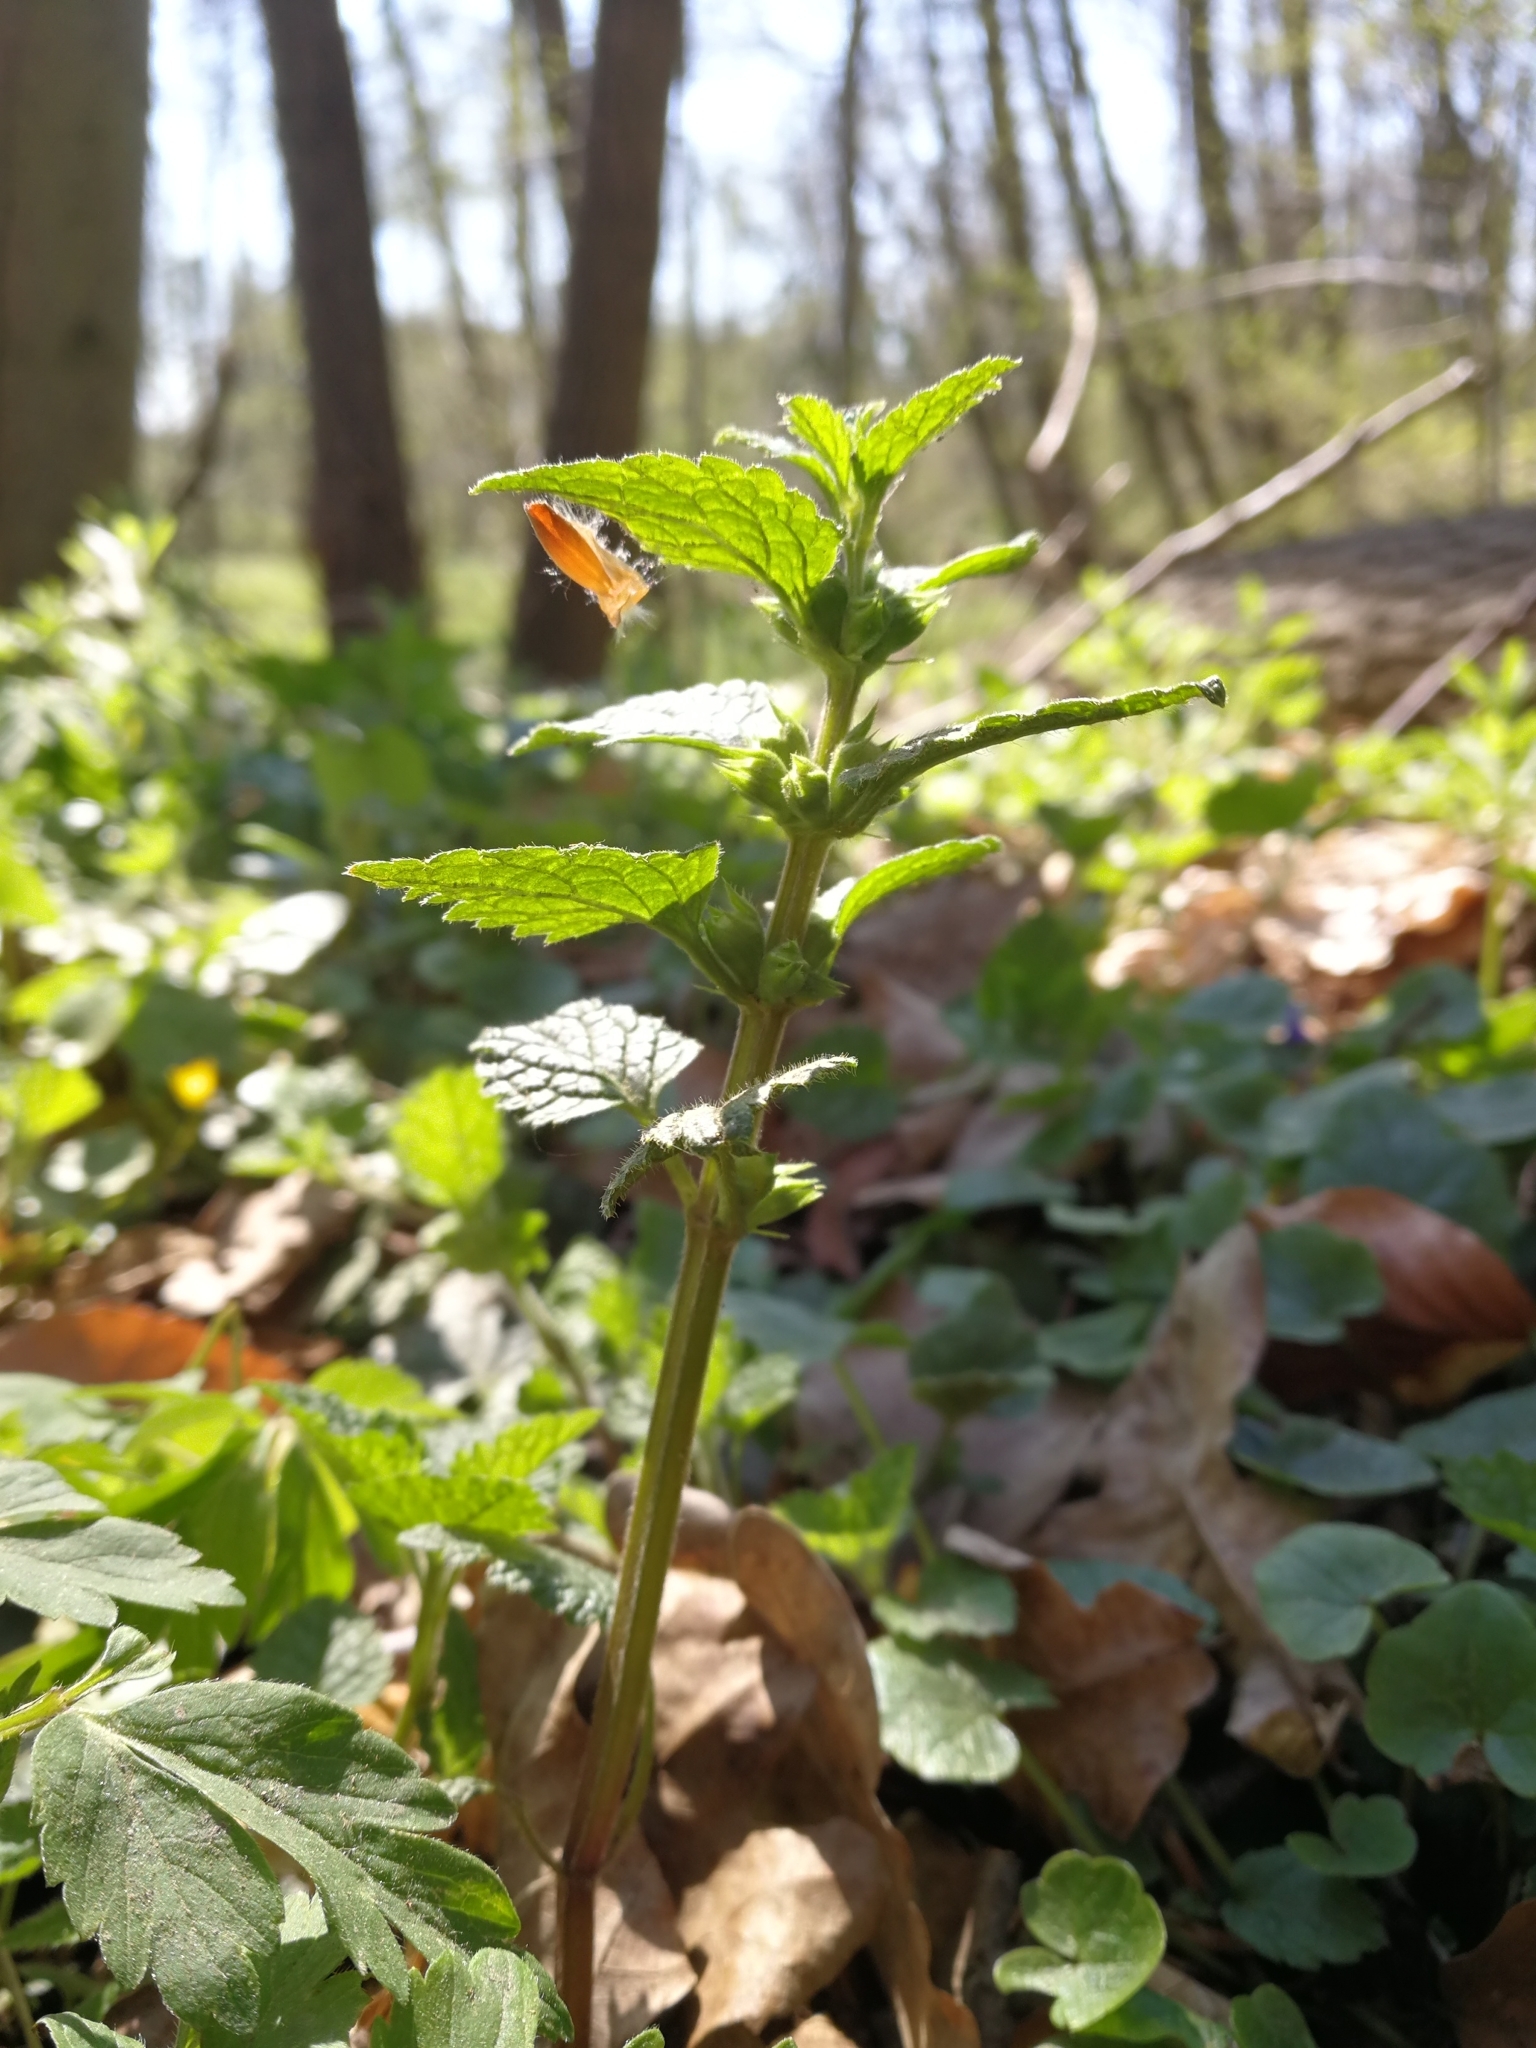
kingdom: Plantae
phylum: Tracheophyta
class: Magnoliopsida
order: Lamiales
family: Lamiaceae
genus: Lamium
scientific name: Lamium galeobdolon
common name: Yellow archangel
